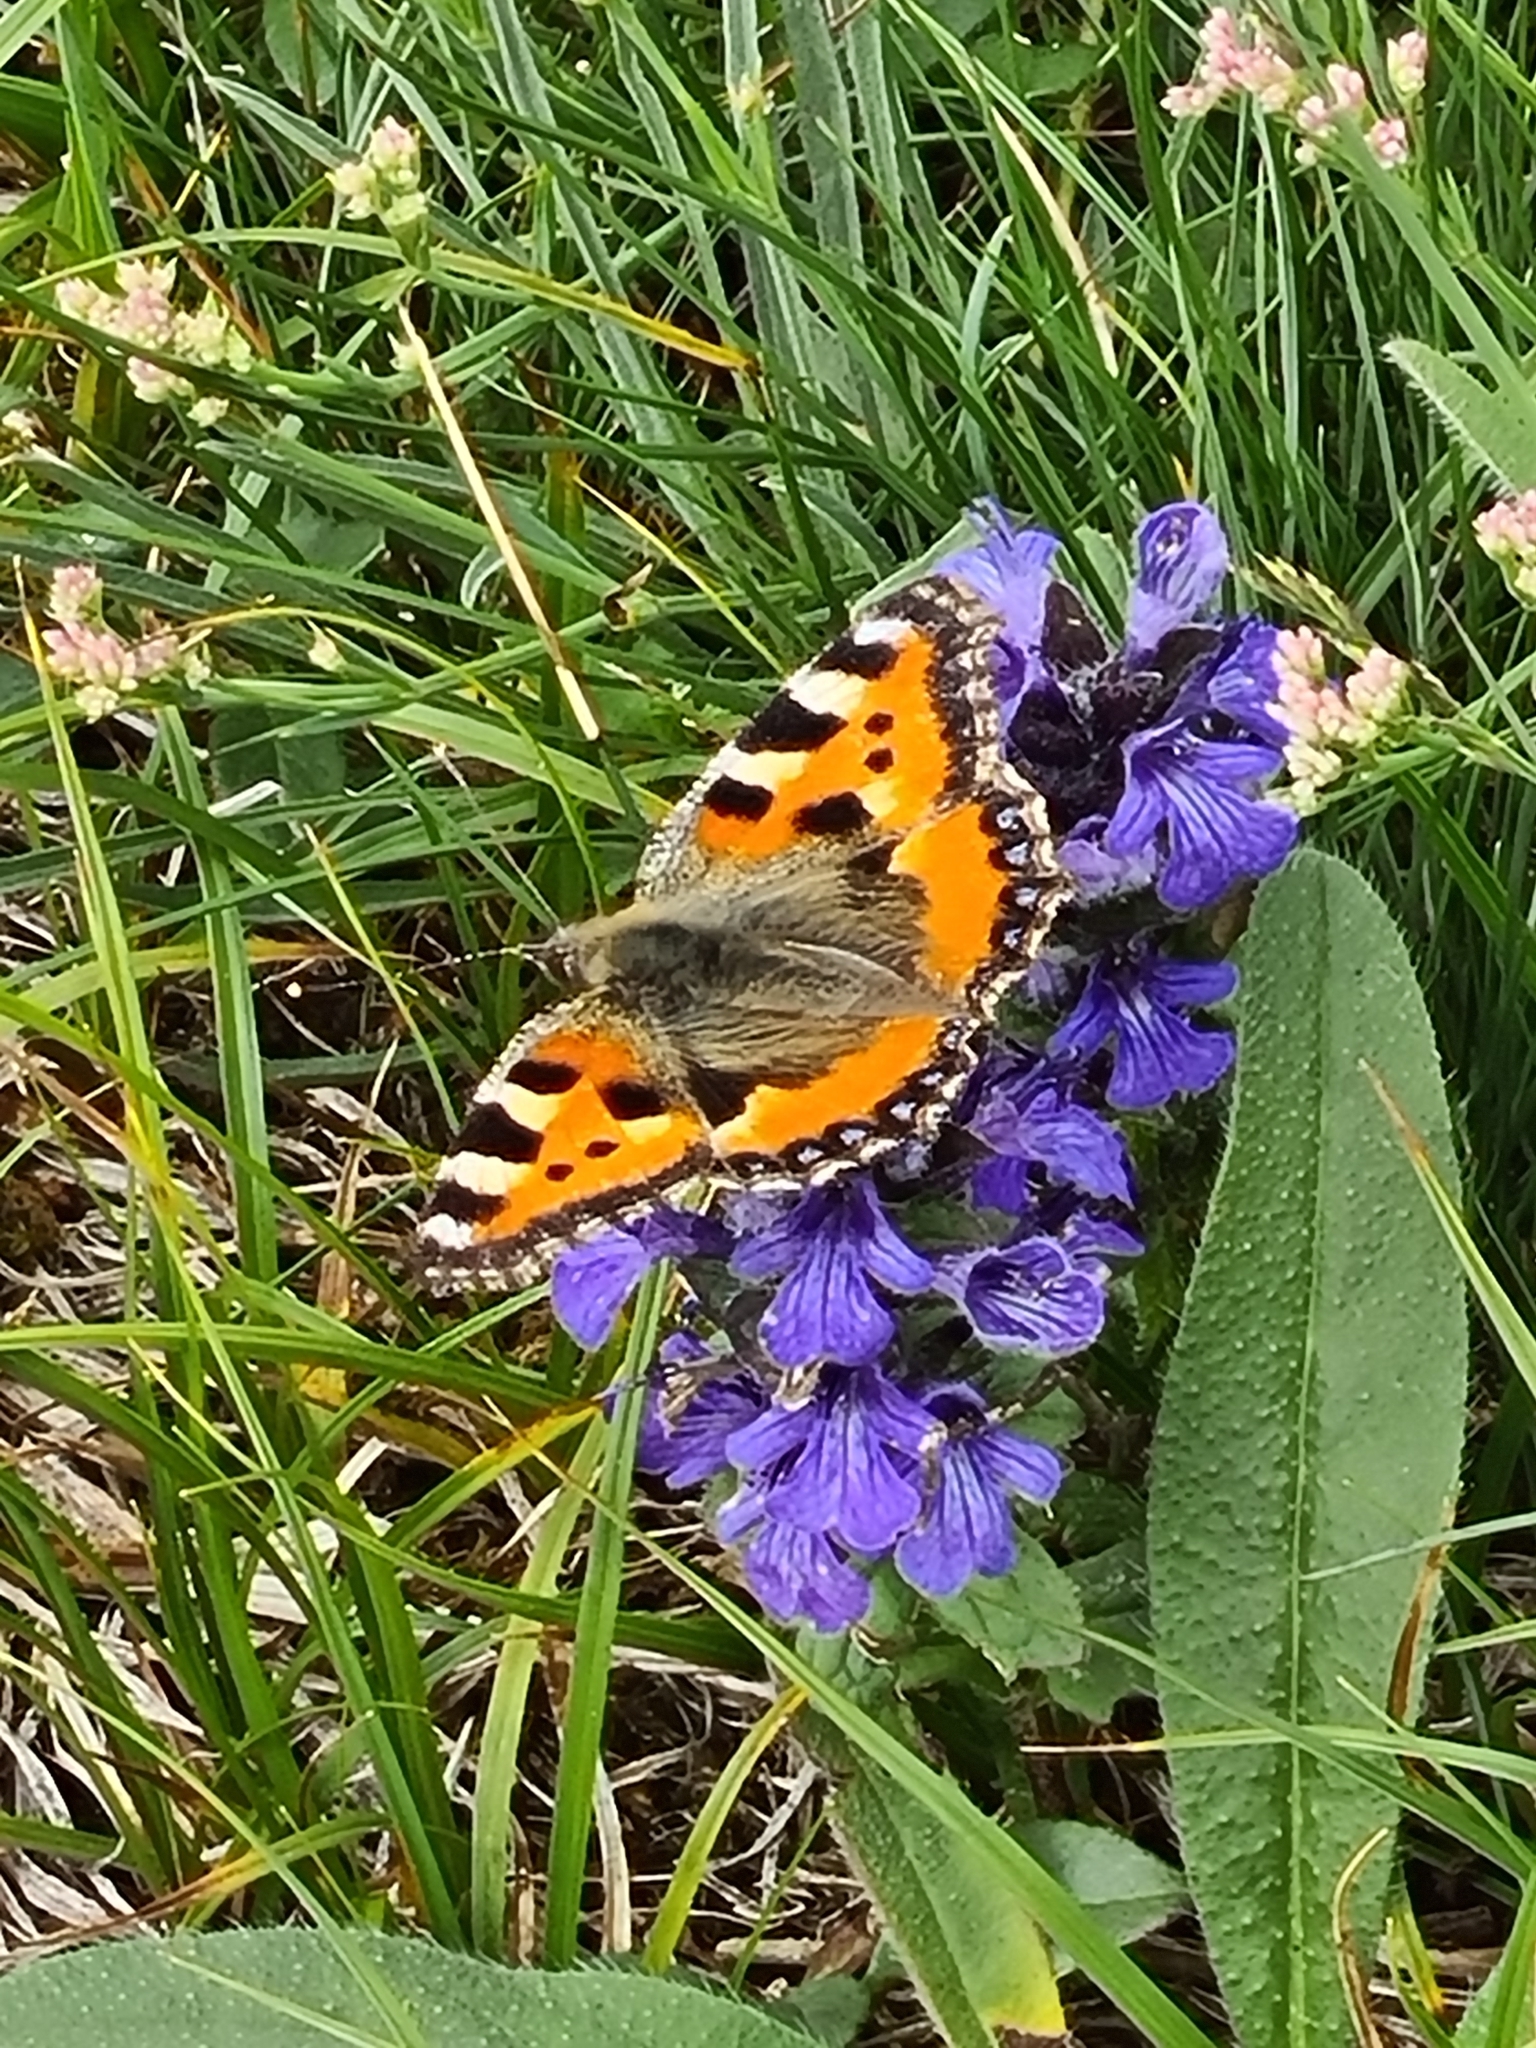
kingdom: Animalia
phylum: Arthropoda
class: Insecta
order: Lepidoptera
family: Nymphalidae
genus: Aglais
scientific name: Aglais urticae
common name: Small tortoiseshell
